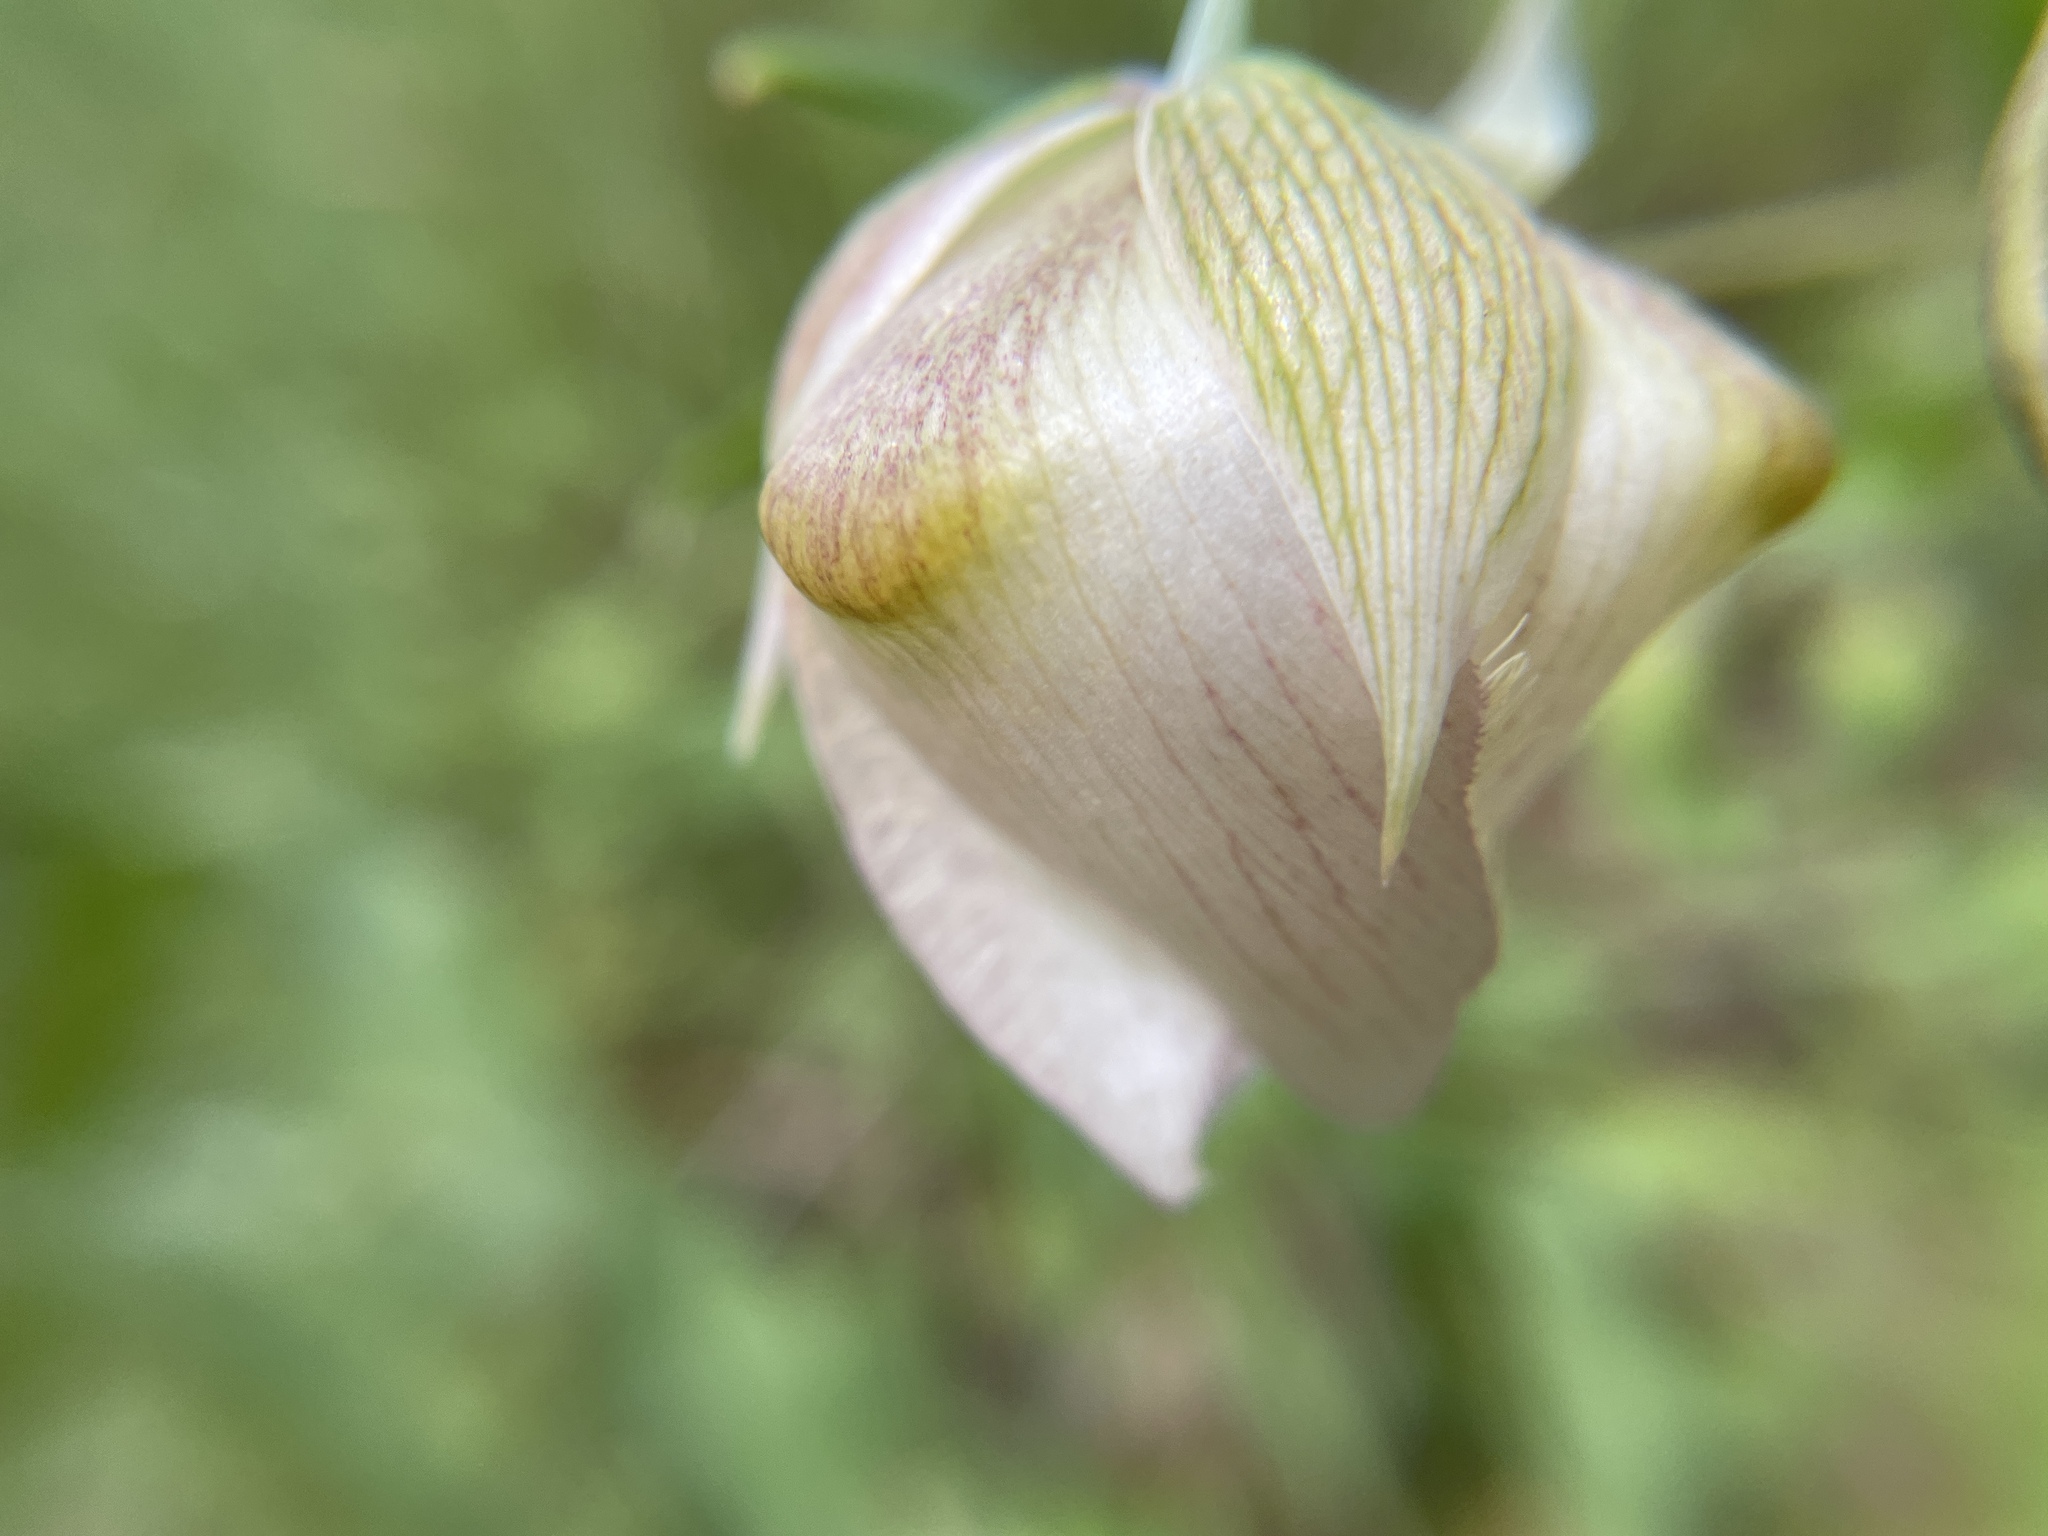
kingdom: Plantae
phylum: Tracheophyta
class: Liliopsida
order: Liliales
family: Liliaceae
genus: Calochortus
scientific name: Calochortus albus
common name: Fairy-lantern
